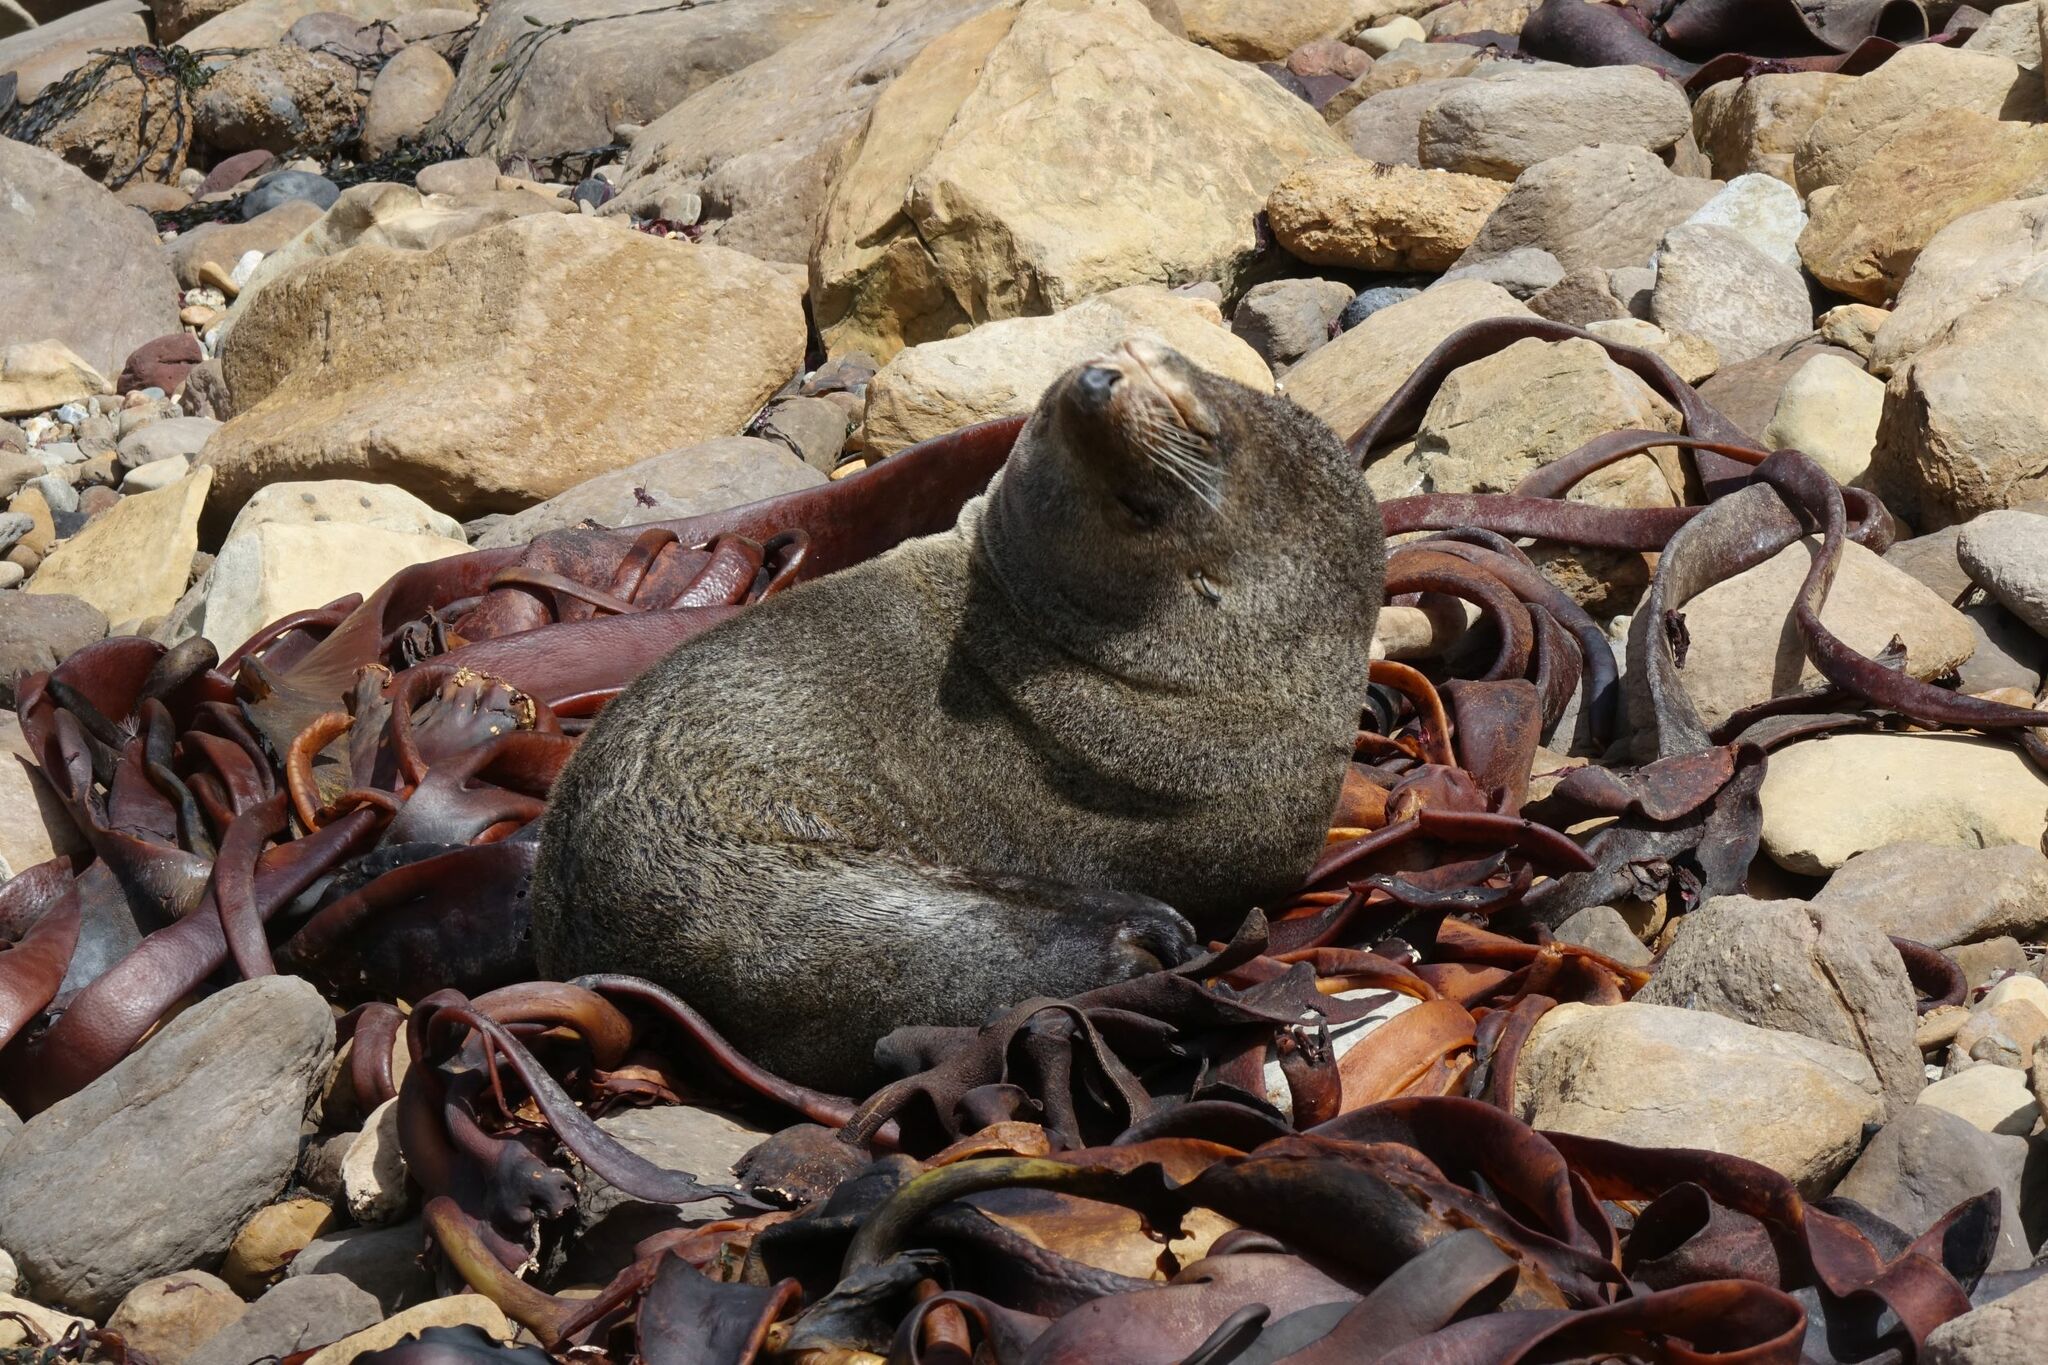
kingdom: Animalia
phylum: Chordata
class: Mammalia
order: Carnivora
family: Otariidae
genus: Arctocephalus
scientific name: Arctocephalus forsteri
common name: New zealand fur seal
